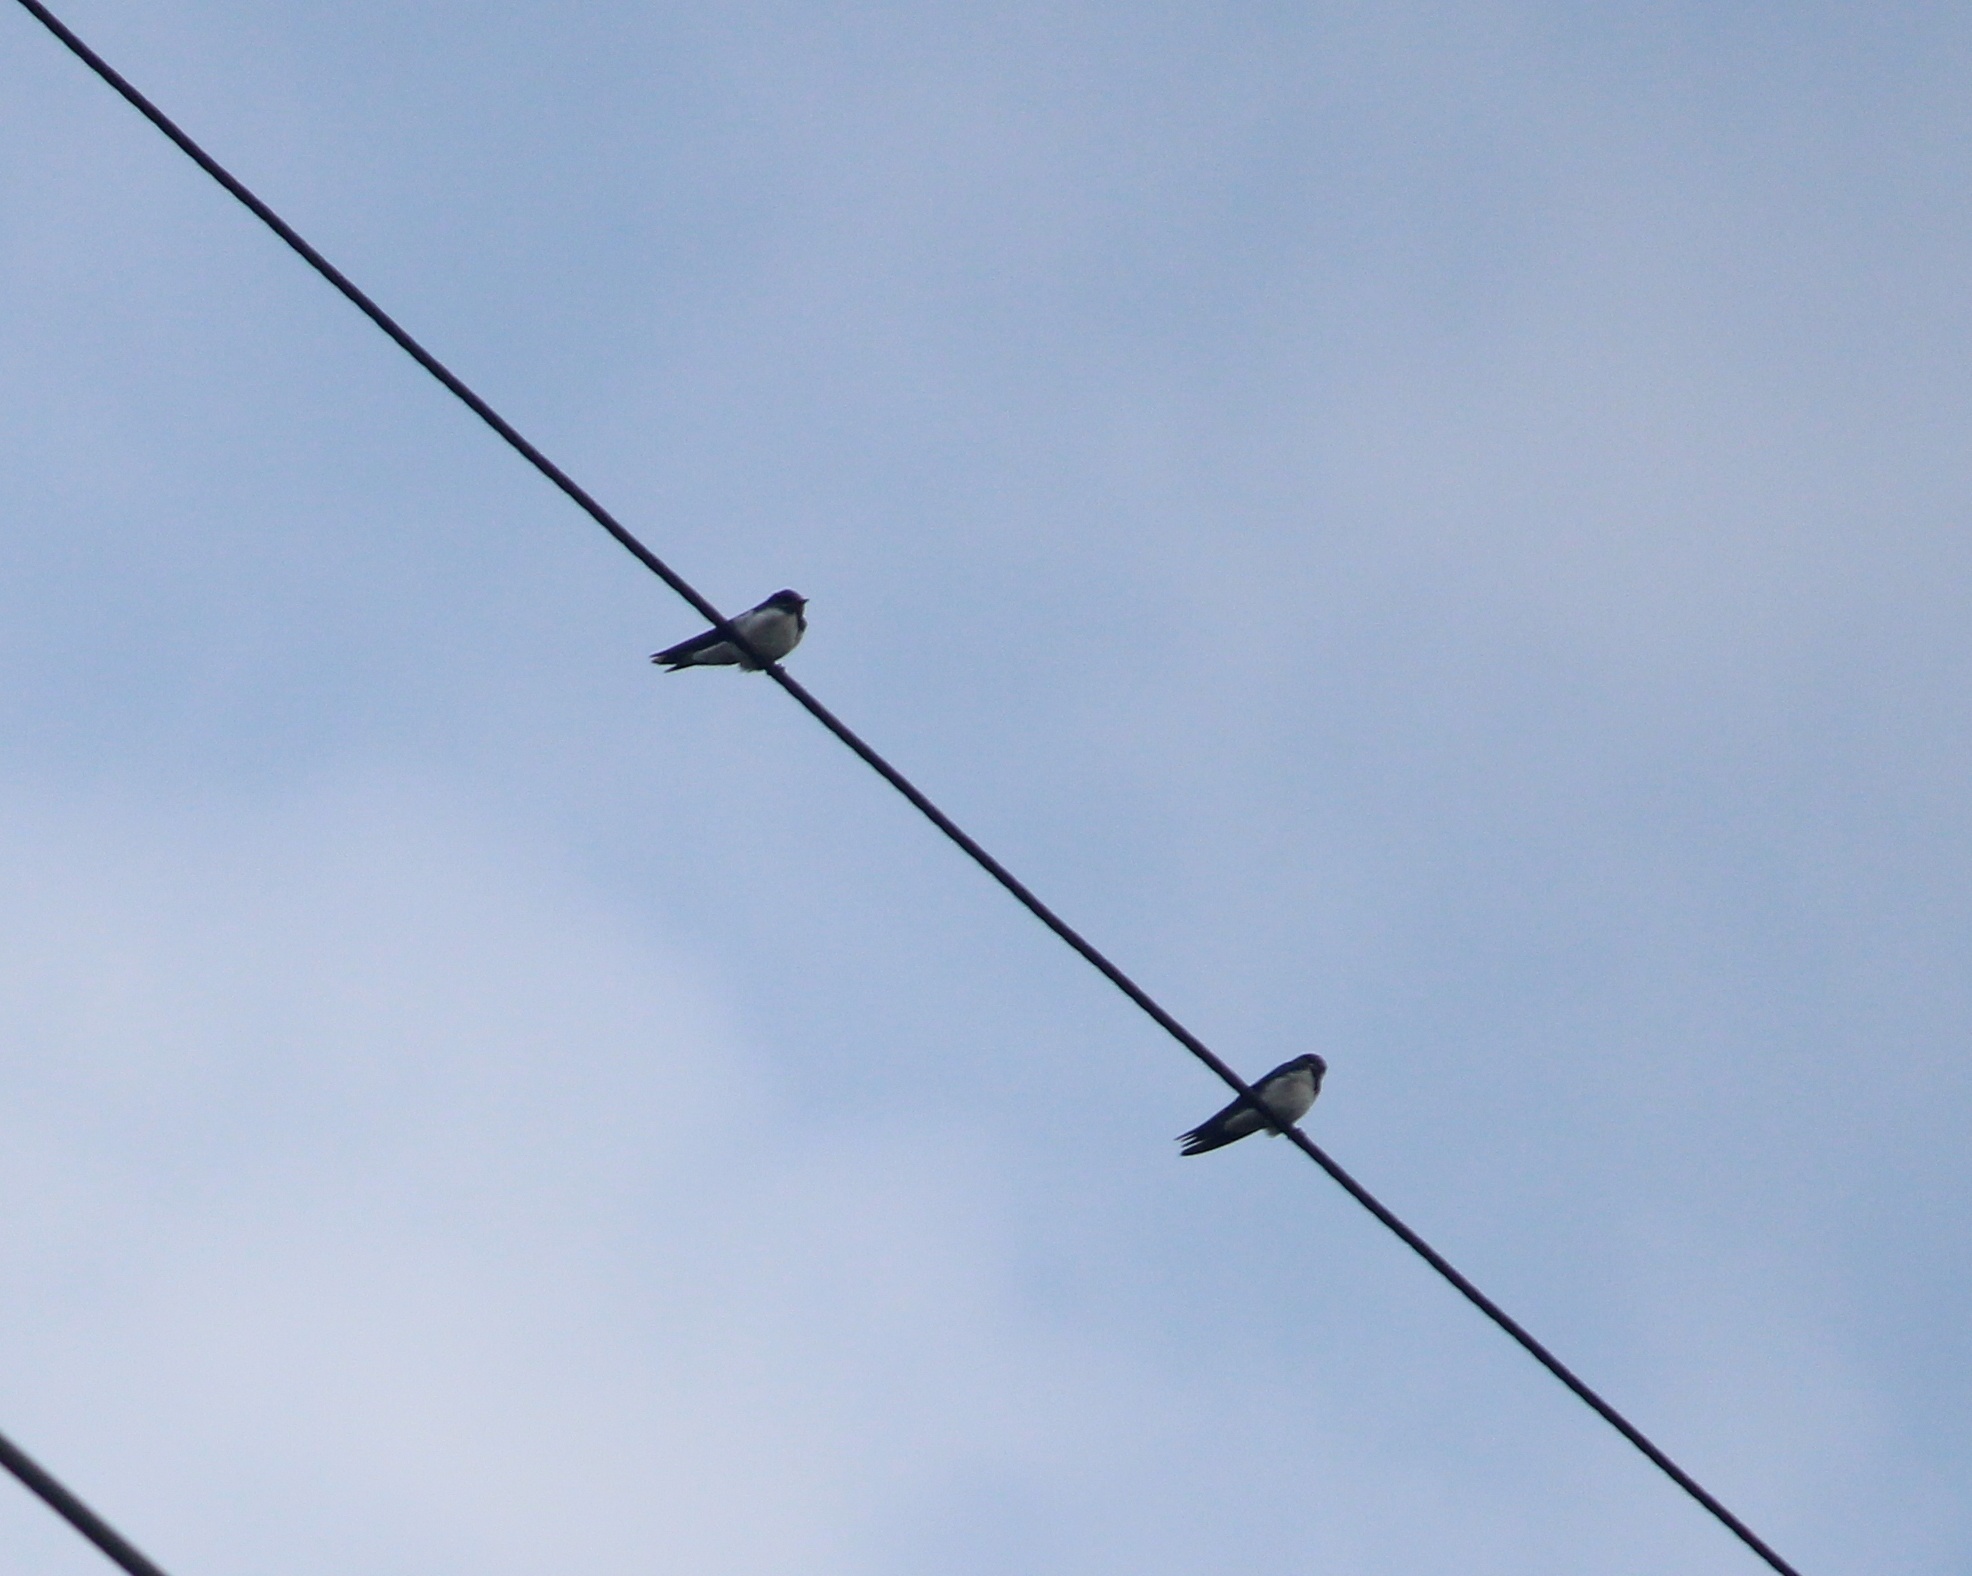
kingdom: Animalia
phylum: Chordata
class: Aves
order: Passeriformes
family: Hirundinidae
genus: Hirundo
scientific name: Hirundo rustica
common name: Barn swallow
